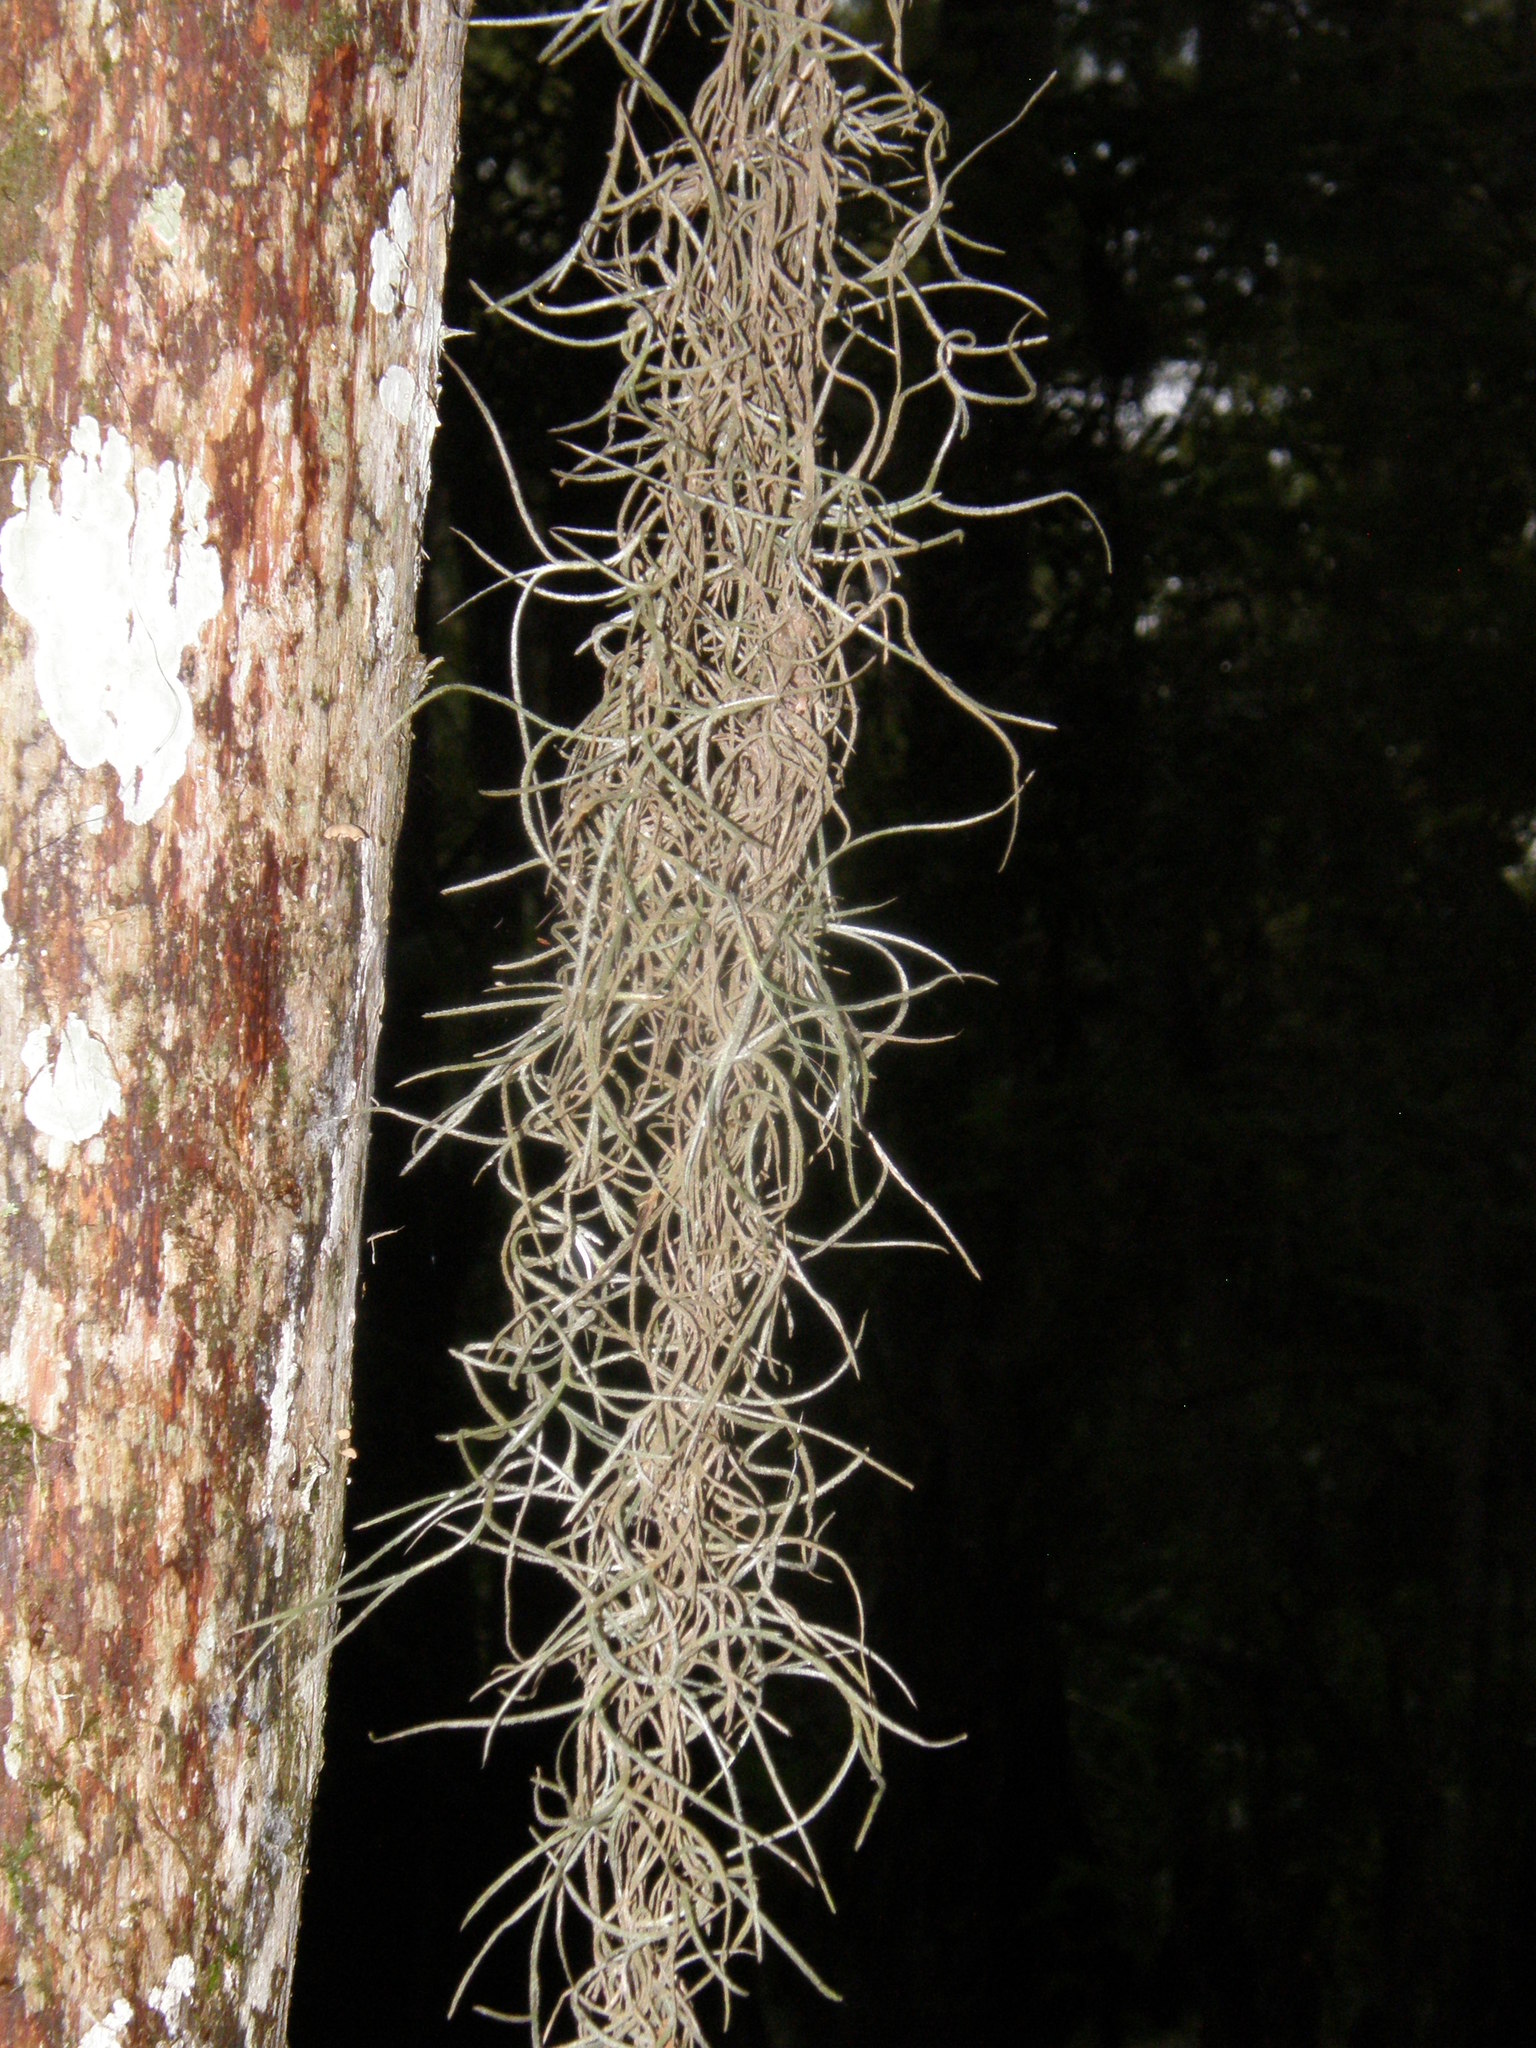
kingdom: Plantae
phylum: Tracheophyta
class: Liliopsida
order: Poales
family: Bromeliaceae
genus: Tillandsia
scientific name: Tillandsia usneoides
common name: Spanish moss
